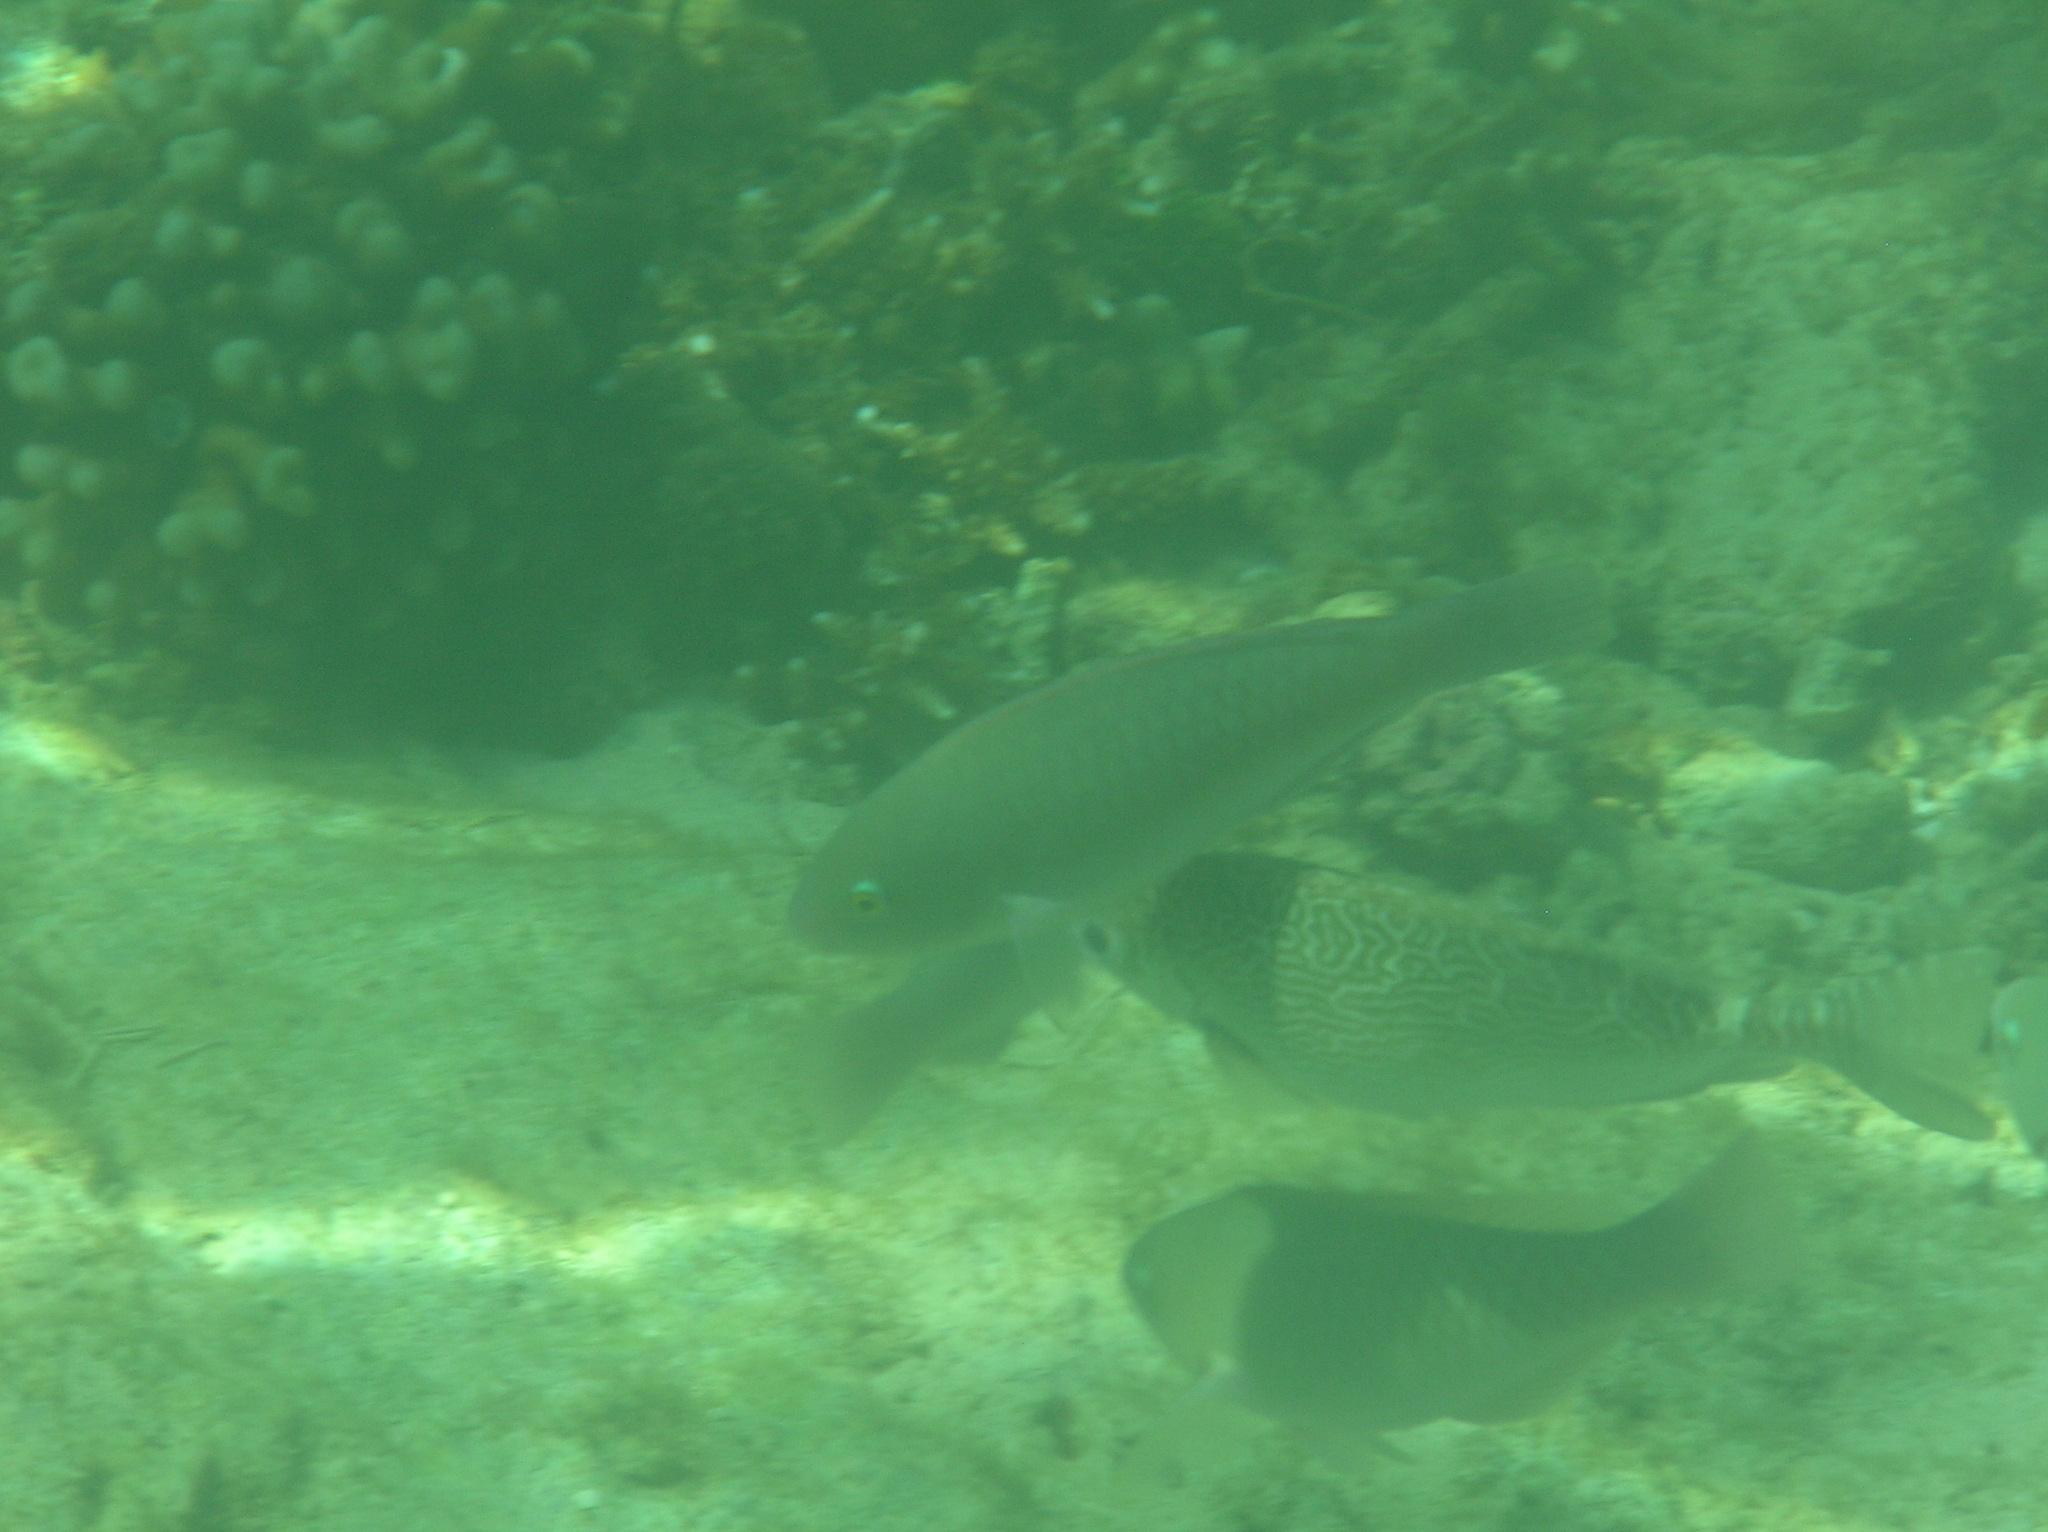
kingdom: Animalia
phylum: Chordata
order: Perciformes
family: Siganidae
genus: Siganus
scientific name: Siganus spinus
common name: Scribbled rabbitfish
